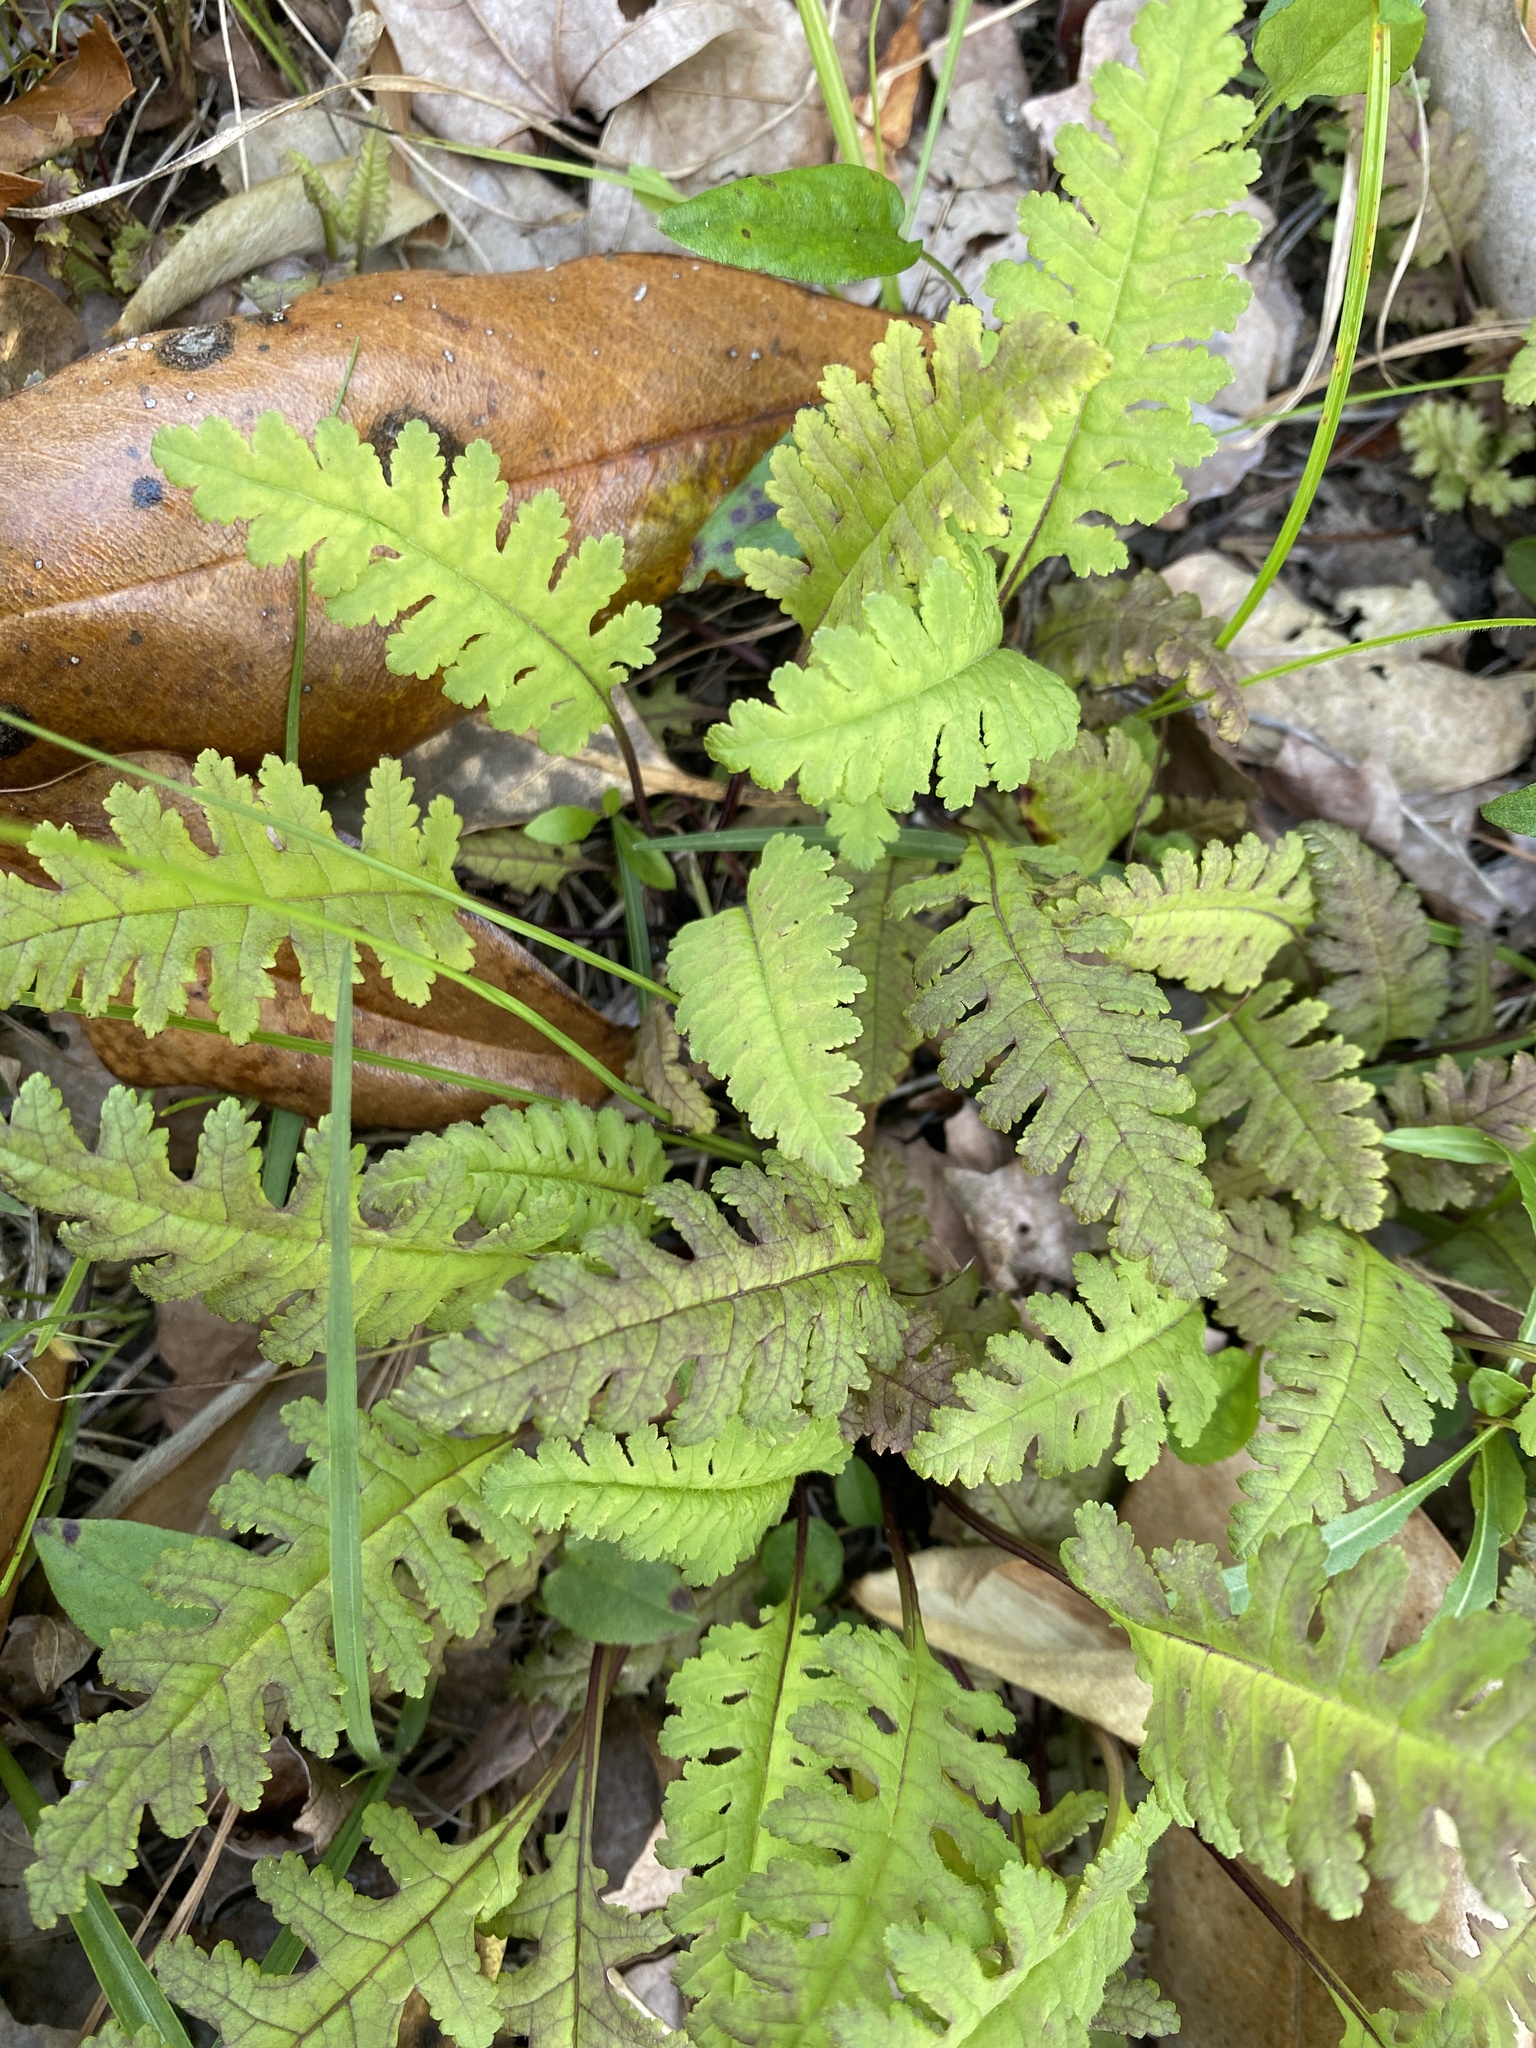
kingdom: Plantae
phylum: Tracheophyta
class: Magnoliopsida
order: Lamiales
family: Orobanchaceae
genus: Pedicularis
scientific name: Pedicularis canadensis
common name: Early lousewort
